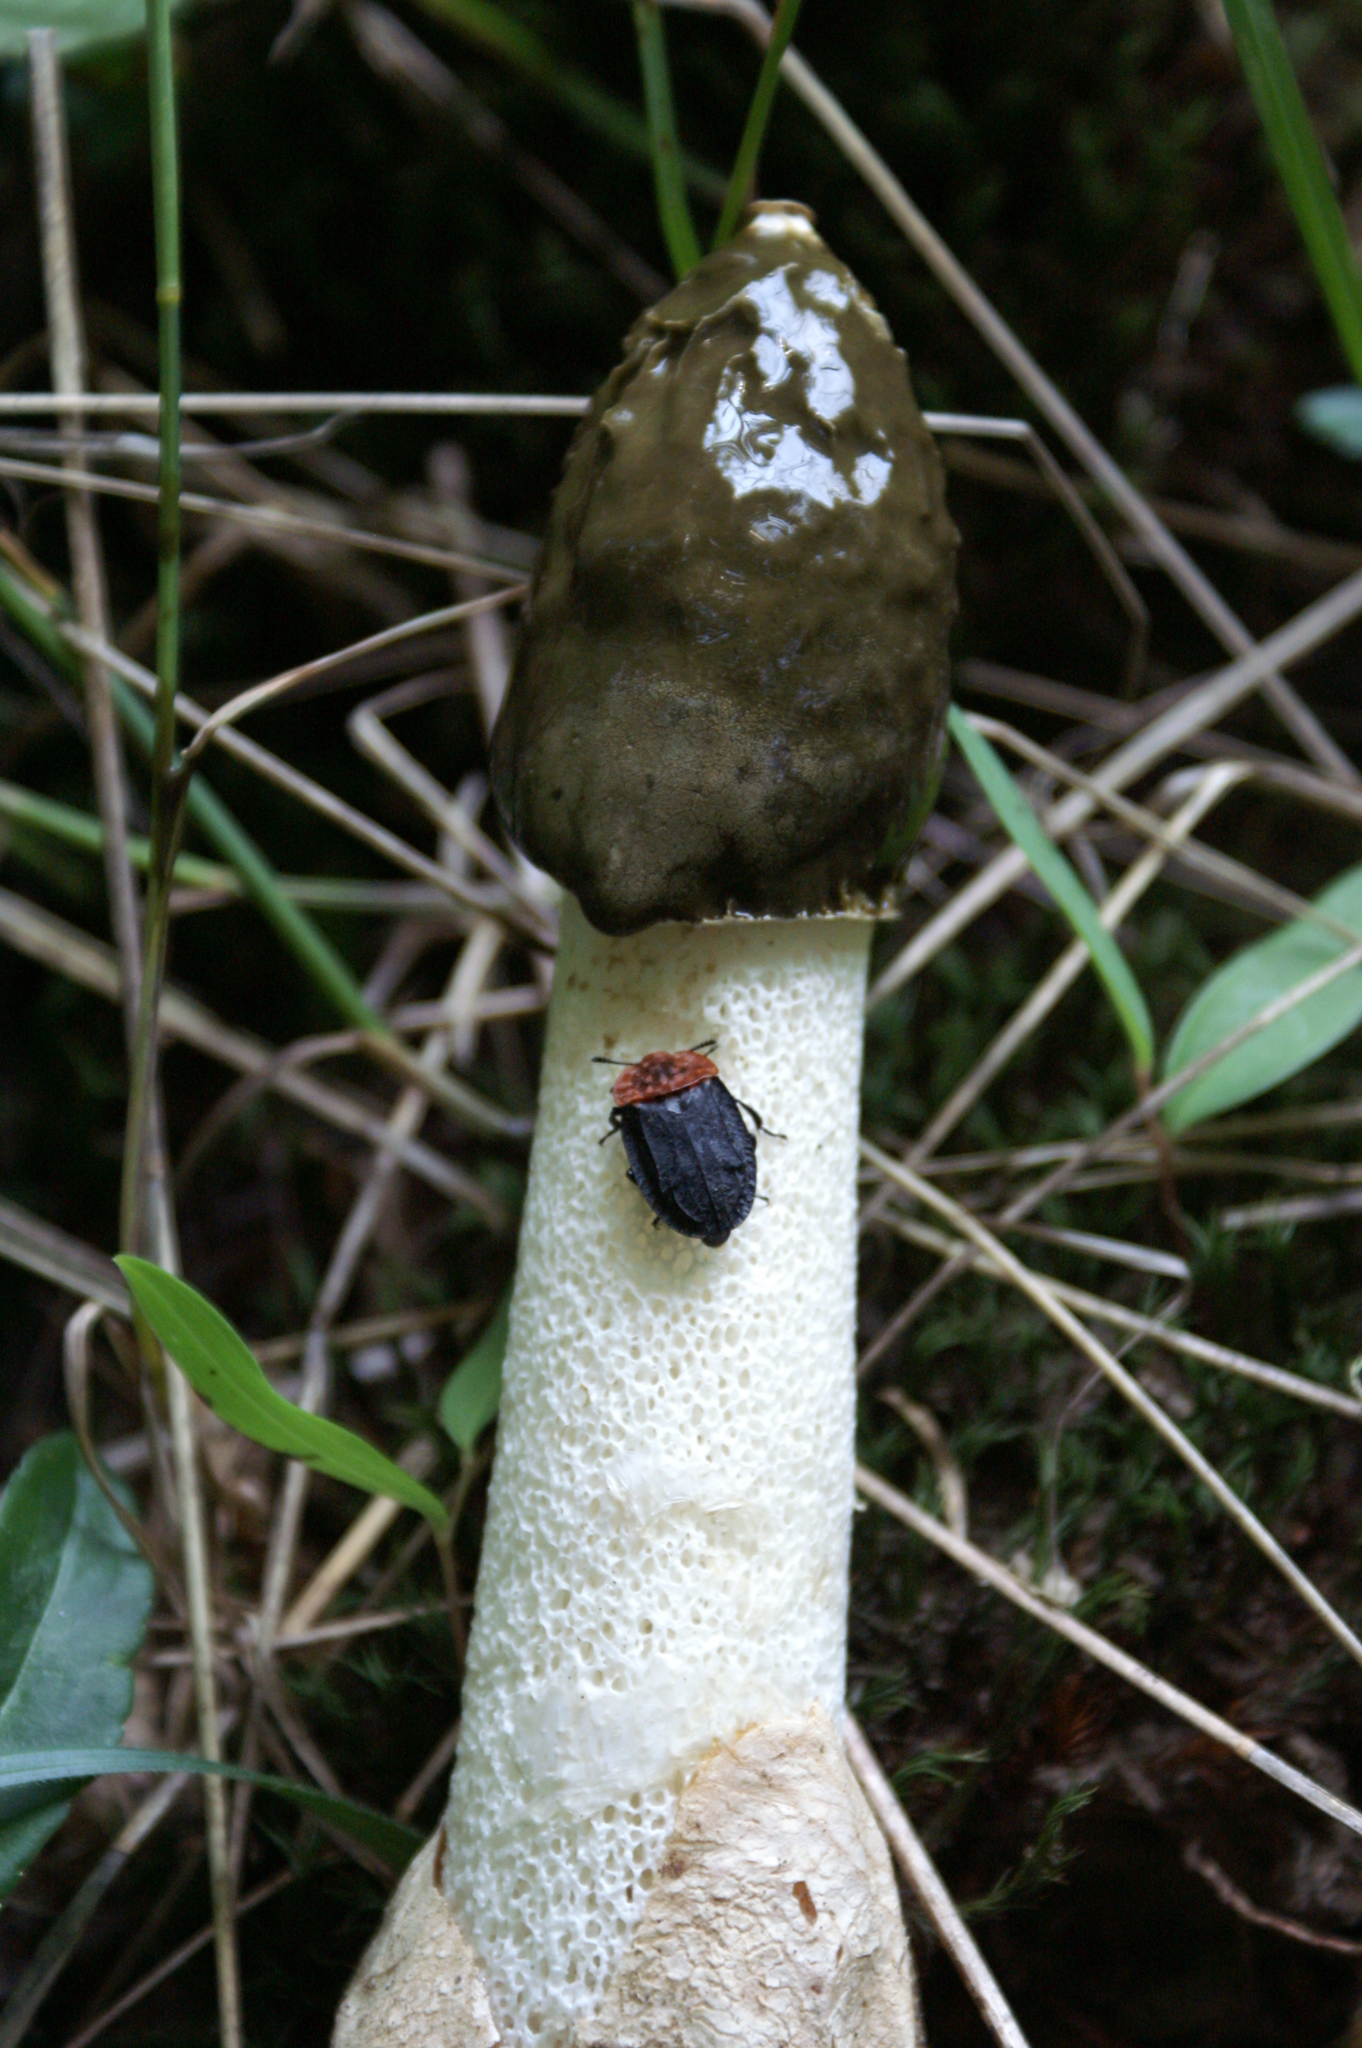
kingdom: Fungi
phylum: Basidiomycota
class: Agaricomycetes
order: Phallales
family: Phallaceae
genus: Phallus
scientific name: Phallus impudicus
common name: Common stinkhorn
